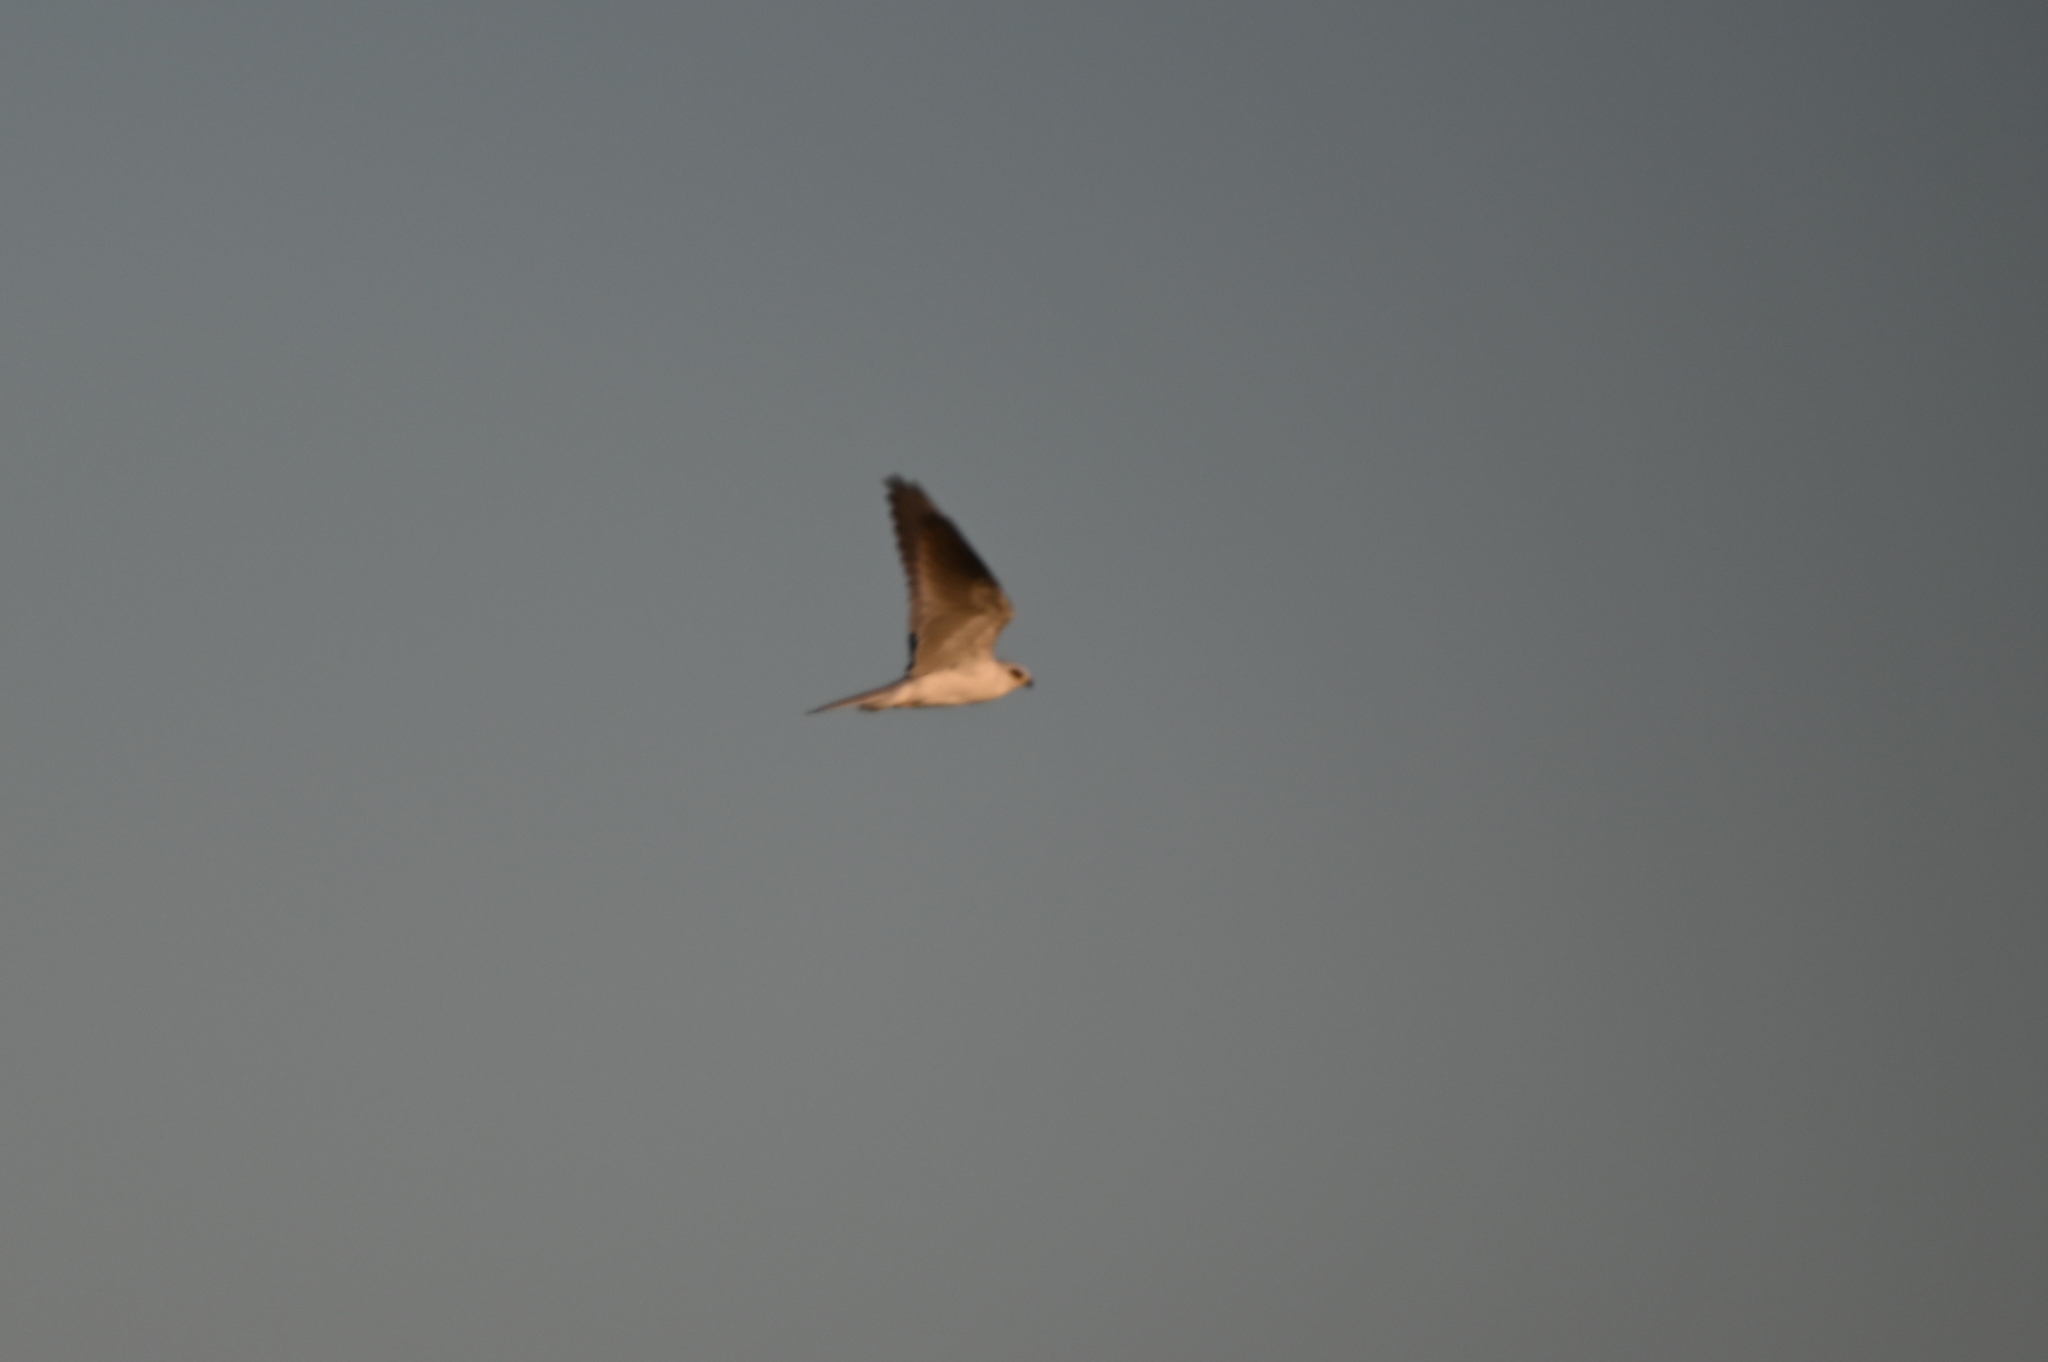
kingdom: Animalia
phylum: Chordata
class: Aves
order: Accipitriformes
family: Accipitridae
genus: Elanus
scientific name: Elanus leucurus
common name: White-tailed kite
